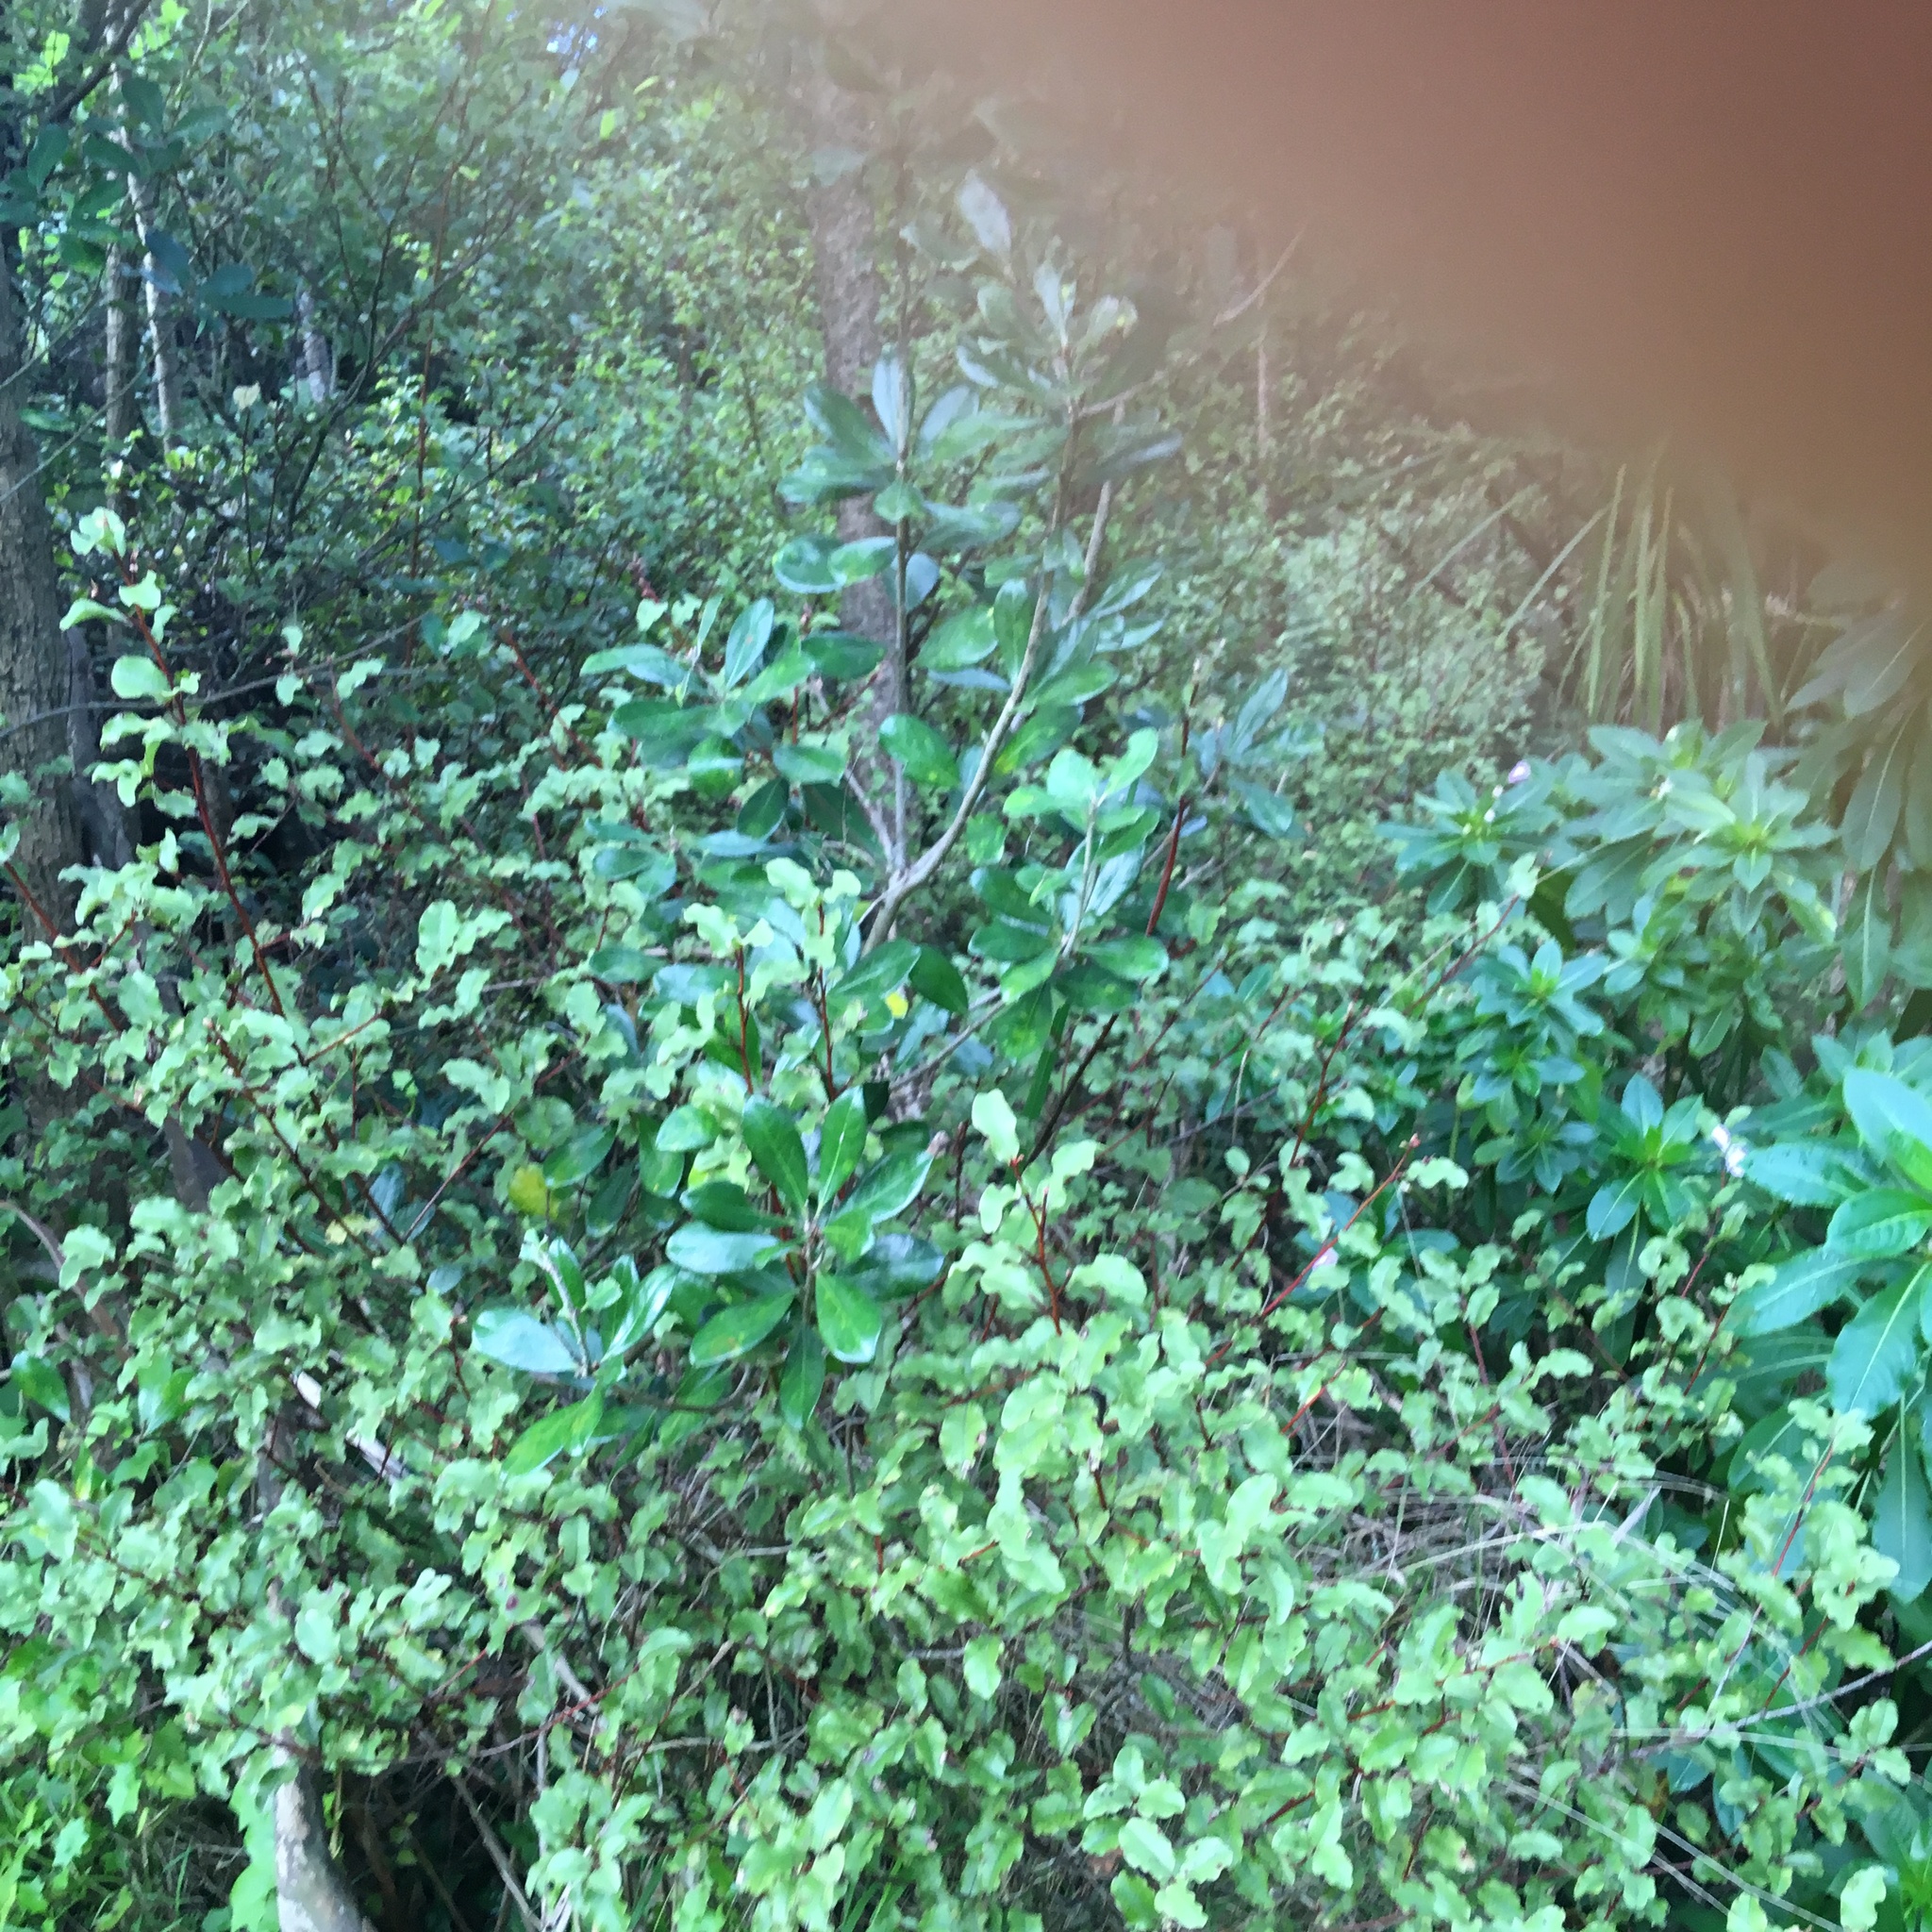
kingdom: Plantae
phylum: Tracheophyta
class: Magnoliopsida
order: Apiales
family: Pittosporaceae
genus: Pittosporum
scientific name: Pittosporum crassifolium
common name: Karo
